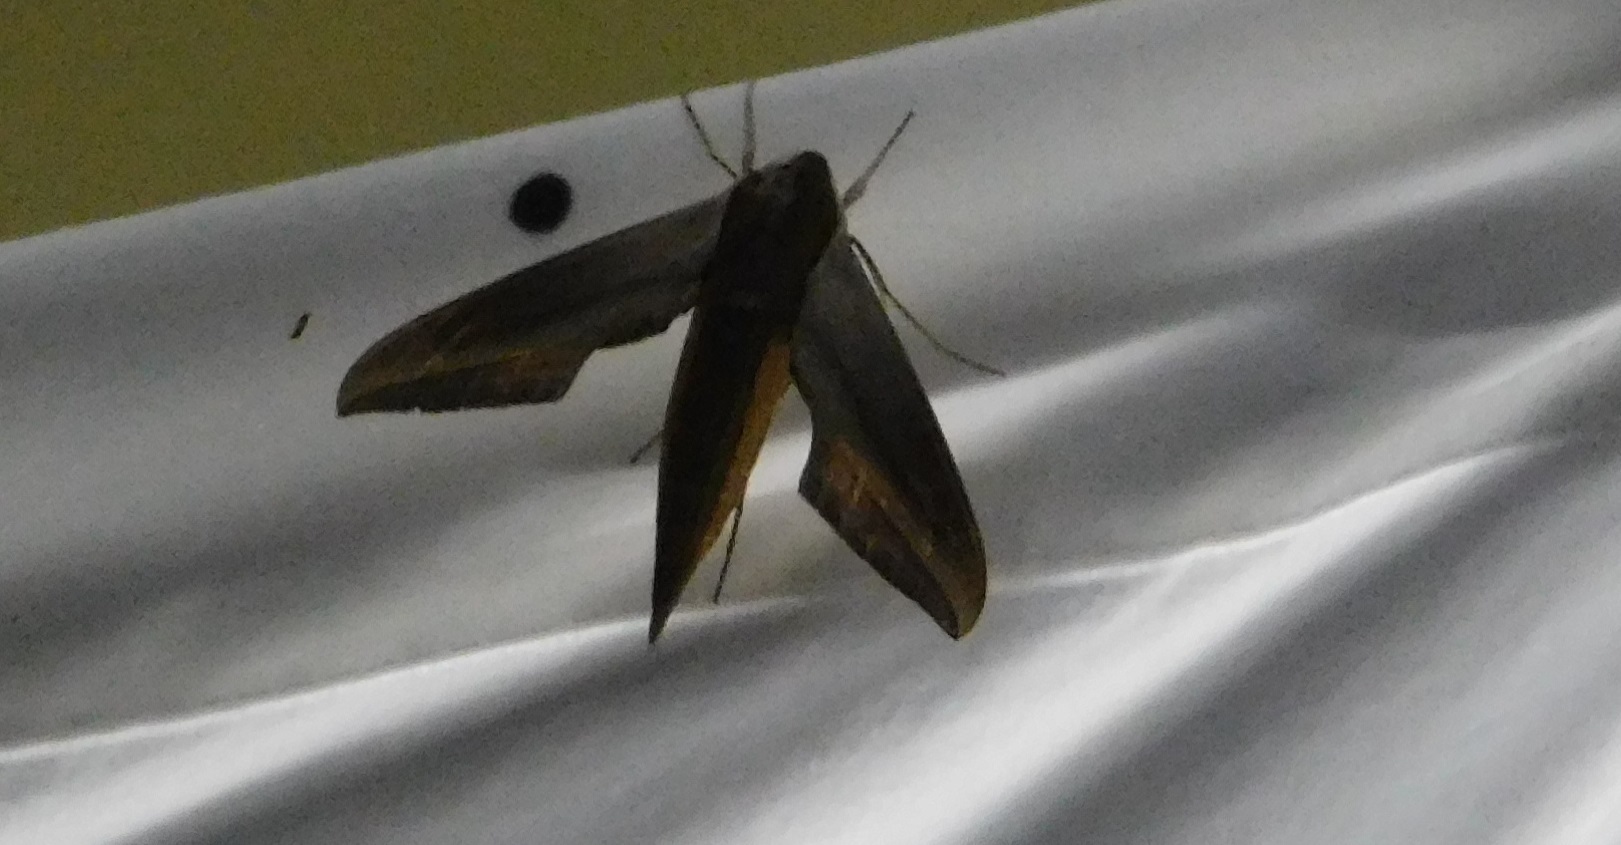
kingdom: Animalia
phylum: Arthropoda
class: Insecta
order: Lepidoptera
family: Sphingidae
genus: Xylophanes
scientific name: Xylophanes tersa
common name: Tersa sphinx
